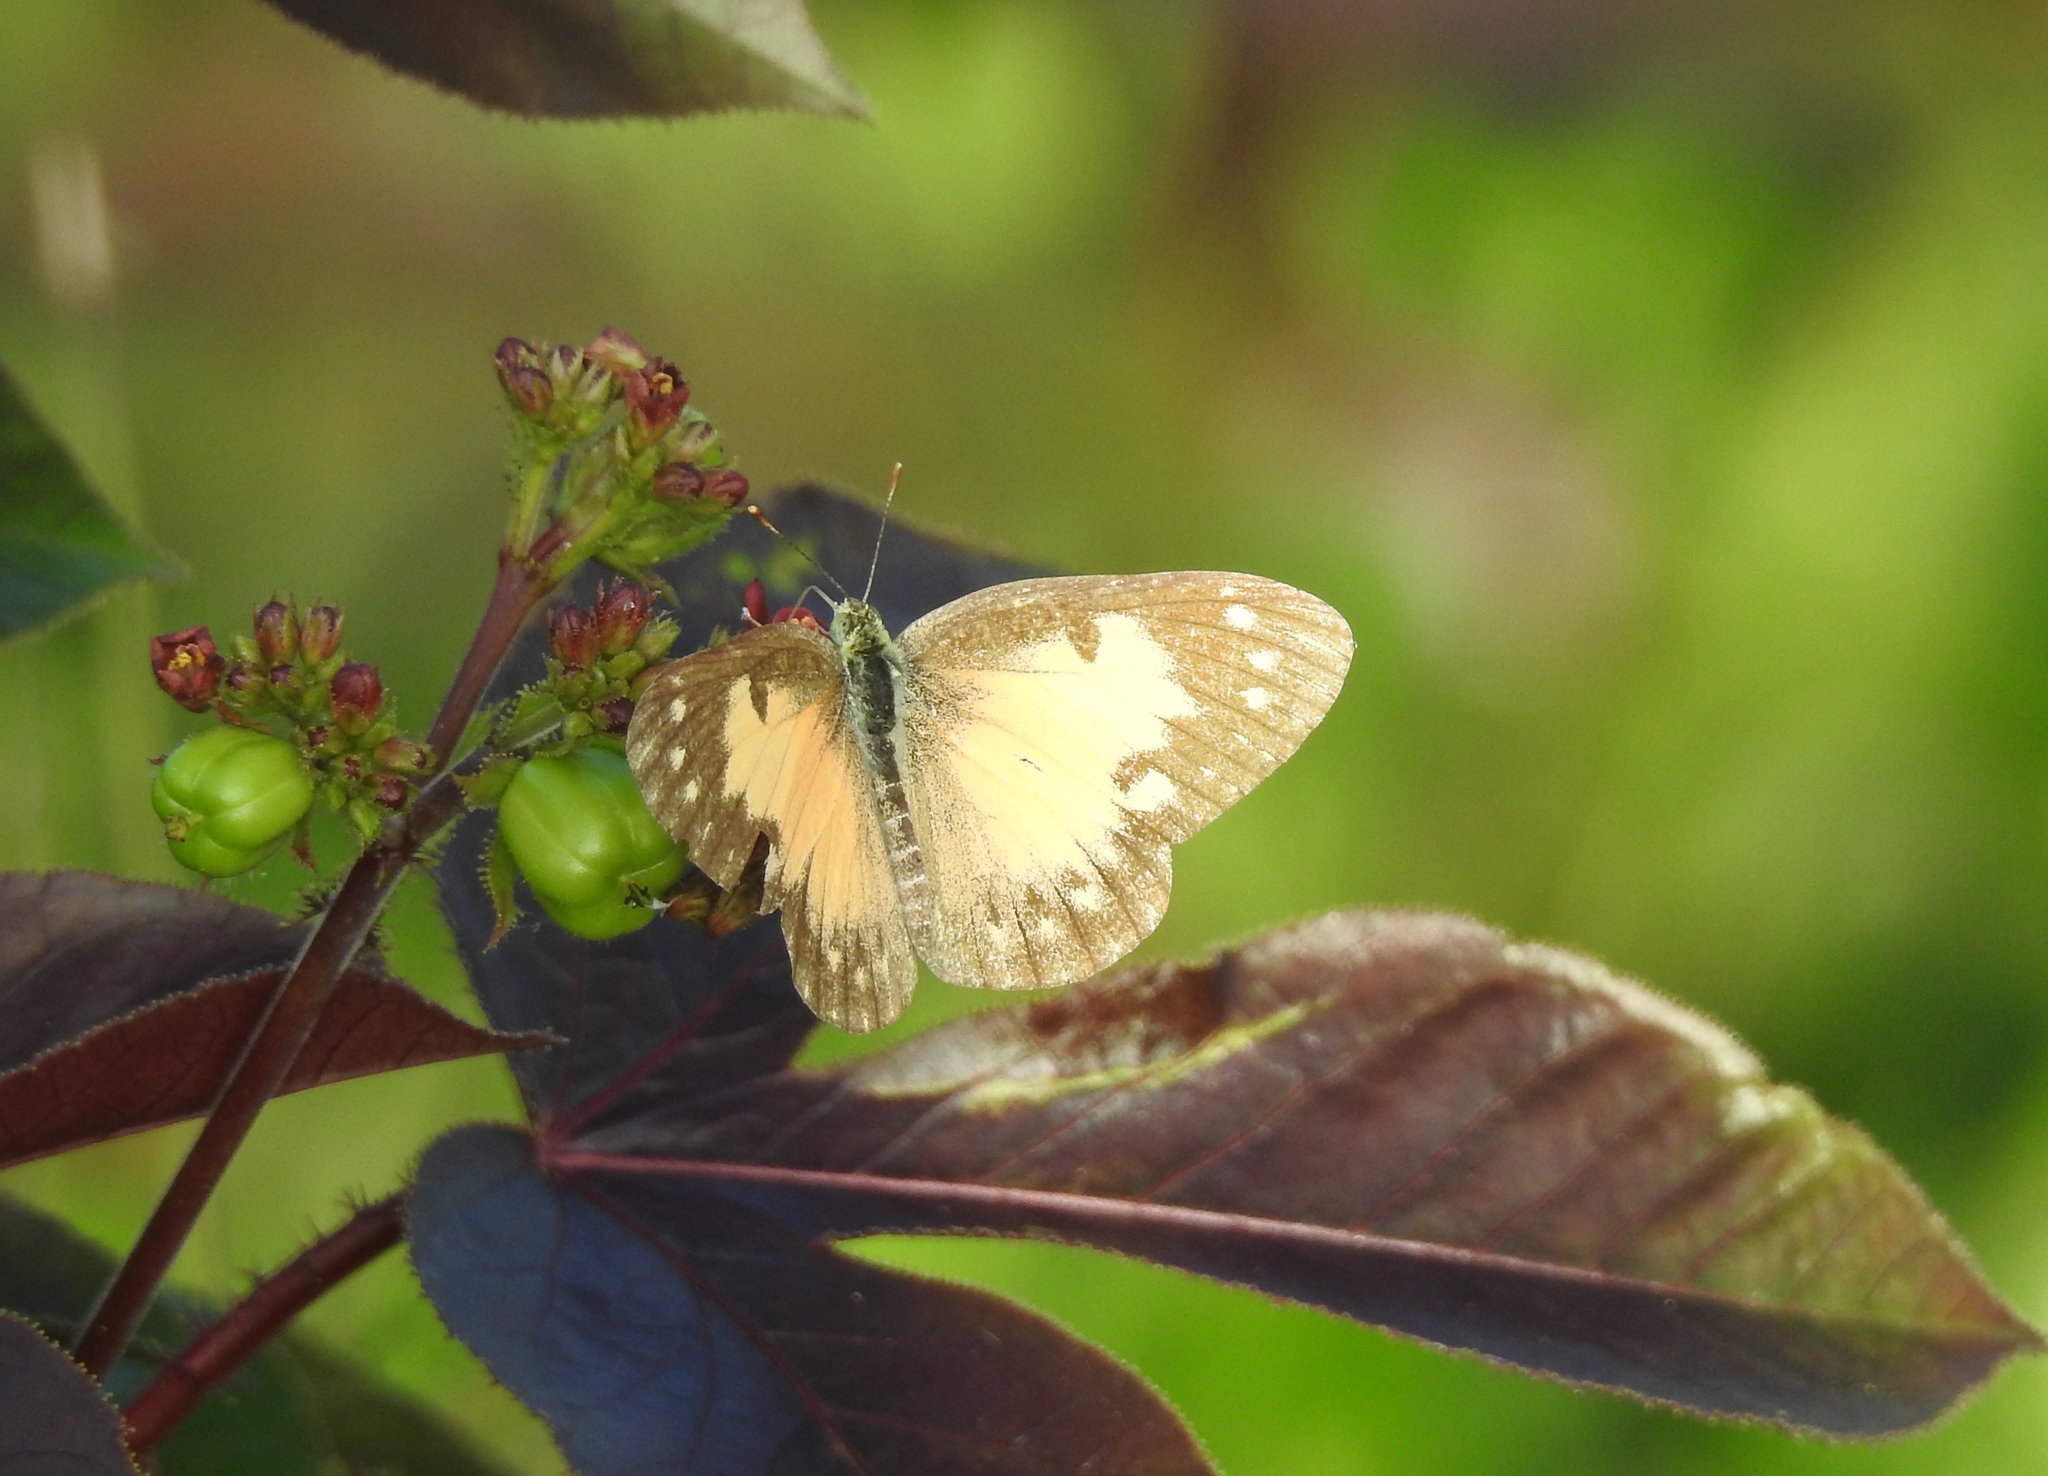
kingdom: Animalia
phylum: Arthropoda
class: Insecta
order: Lepidoptera
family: Pieridae
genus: Colotis
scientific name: Colotis amata
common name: Small salmon arab
